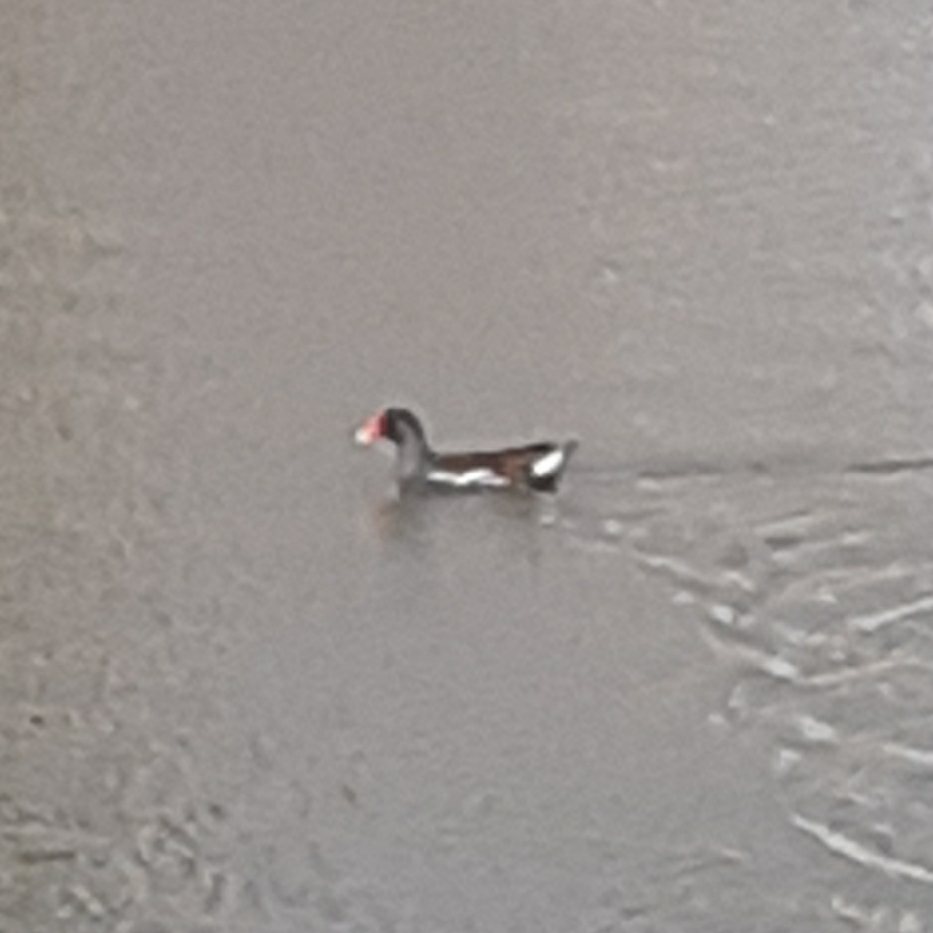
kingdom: Animalia
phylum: Chordata
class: Aves
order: Gruiformes
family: Rallidae
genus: Gallinula
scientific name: Gallinula chloropus
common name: Common moorhen
